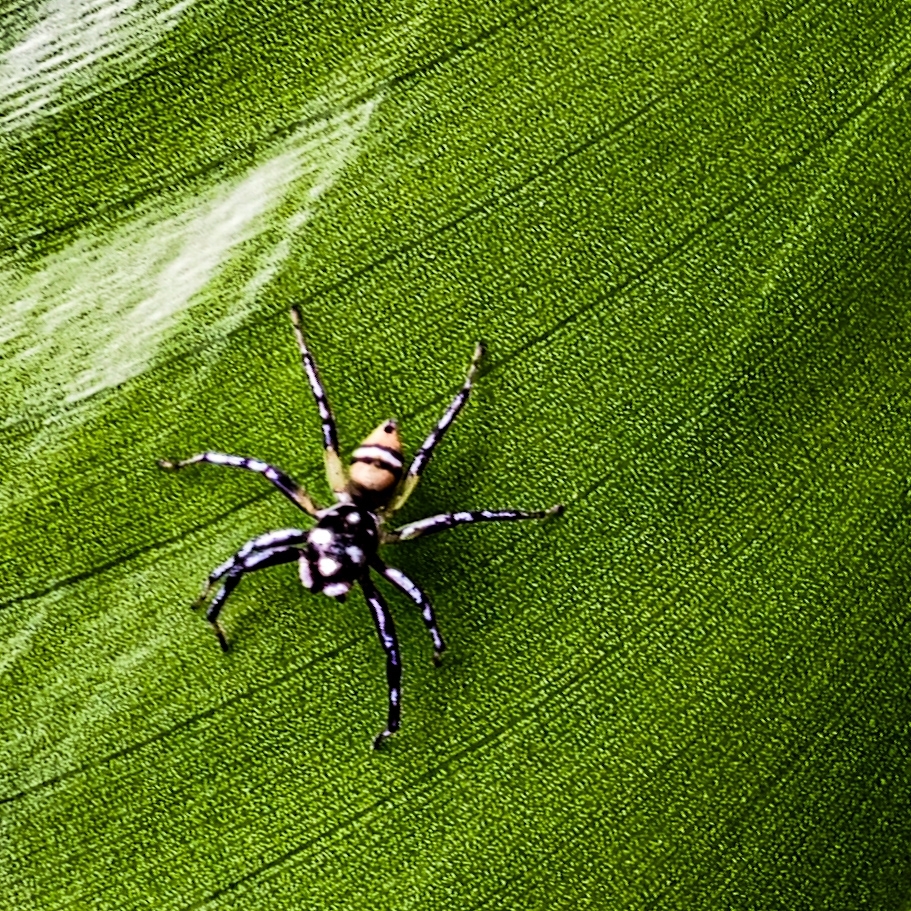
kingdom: Animalia
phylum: Arthropoda
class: Arachnida
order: Araneae
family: Salticidae
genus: Phintella
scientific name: Phintella piatensis
